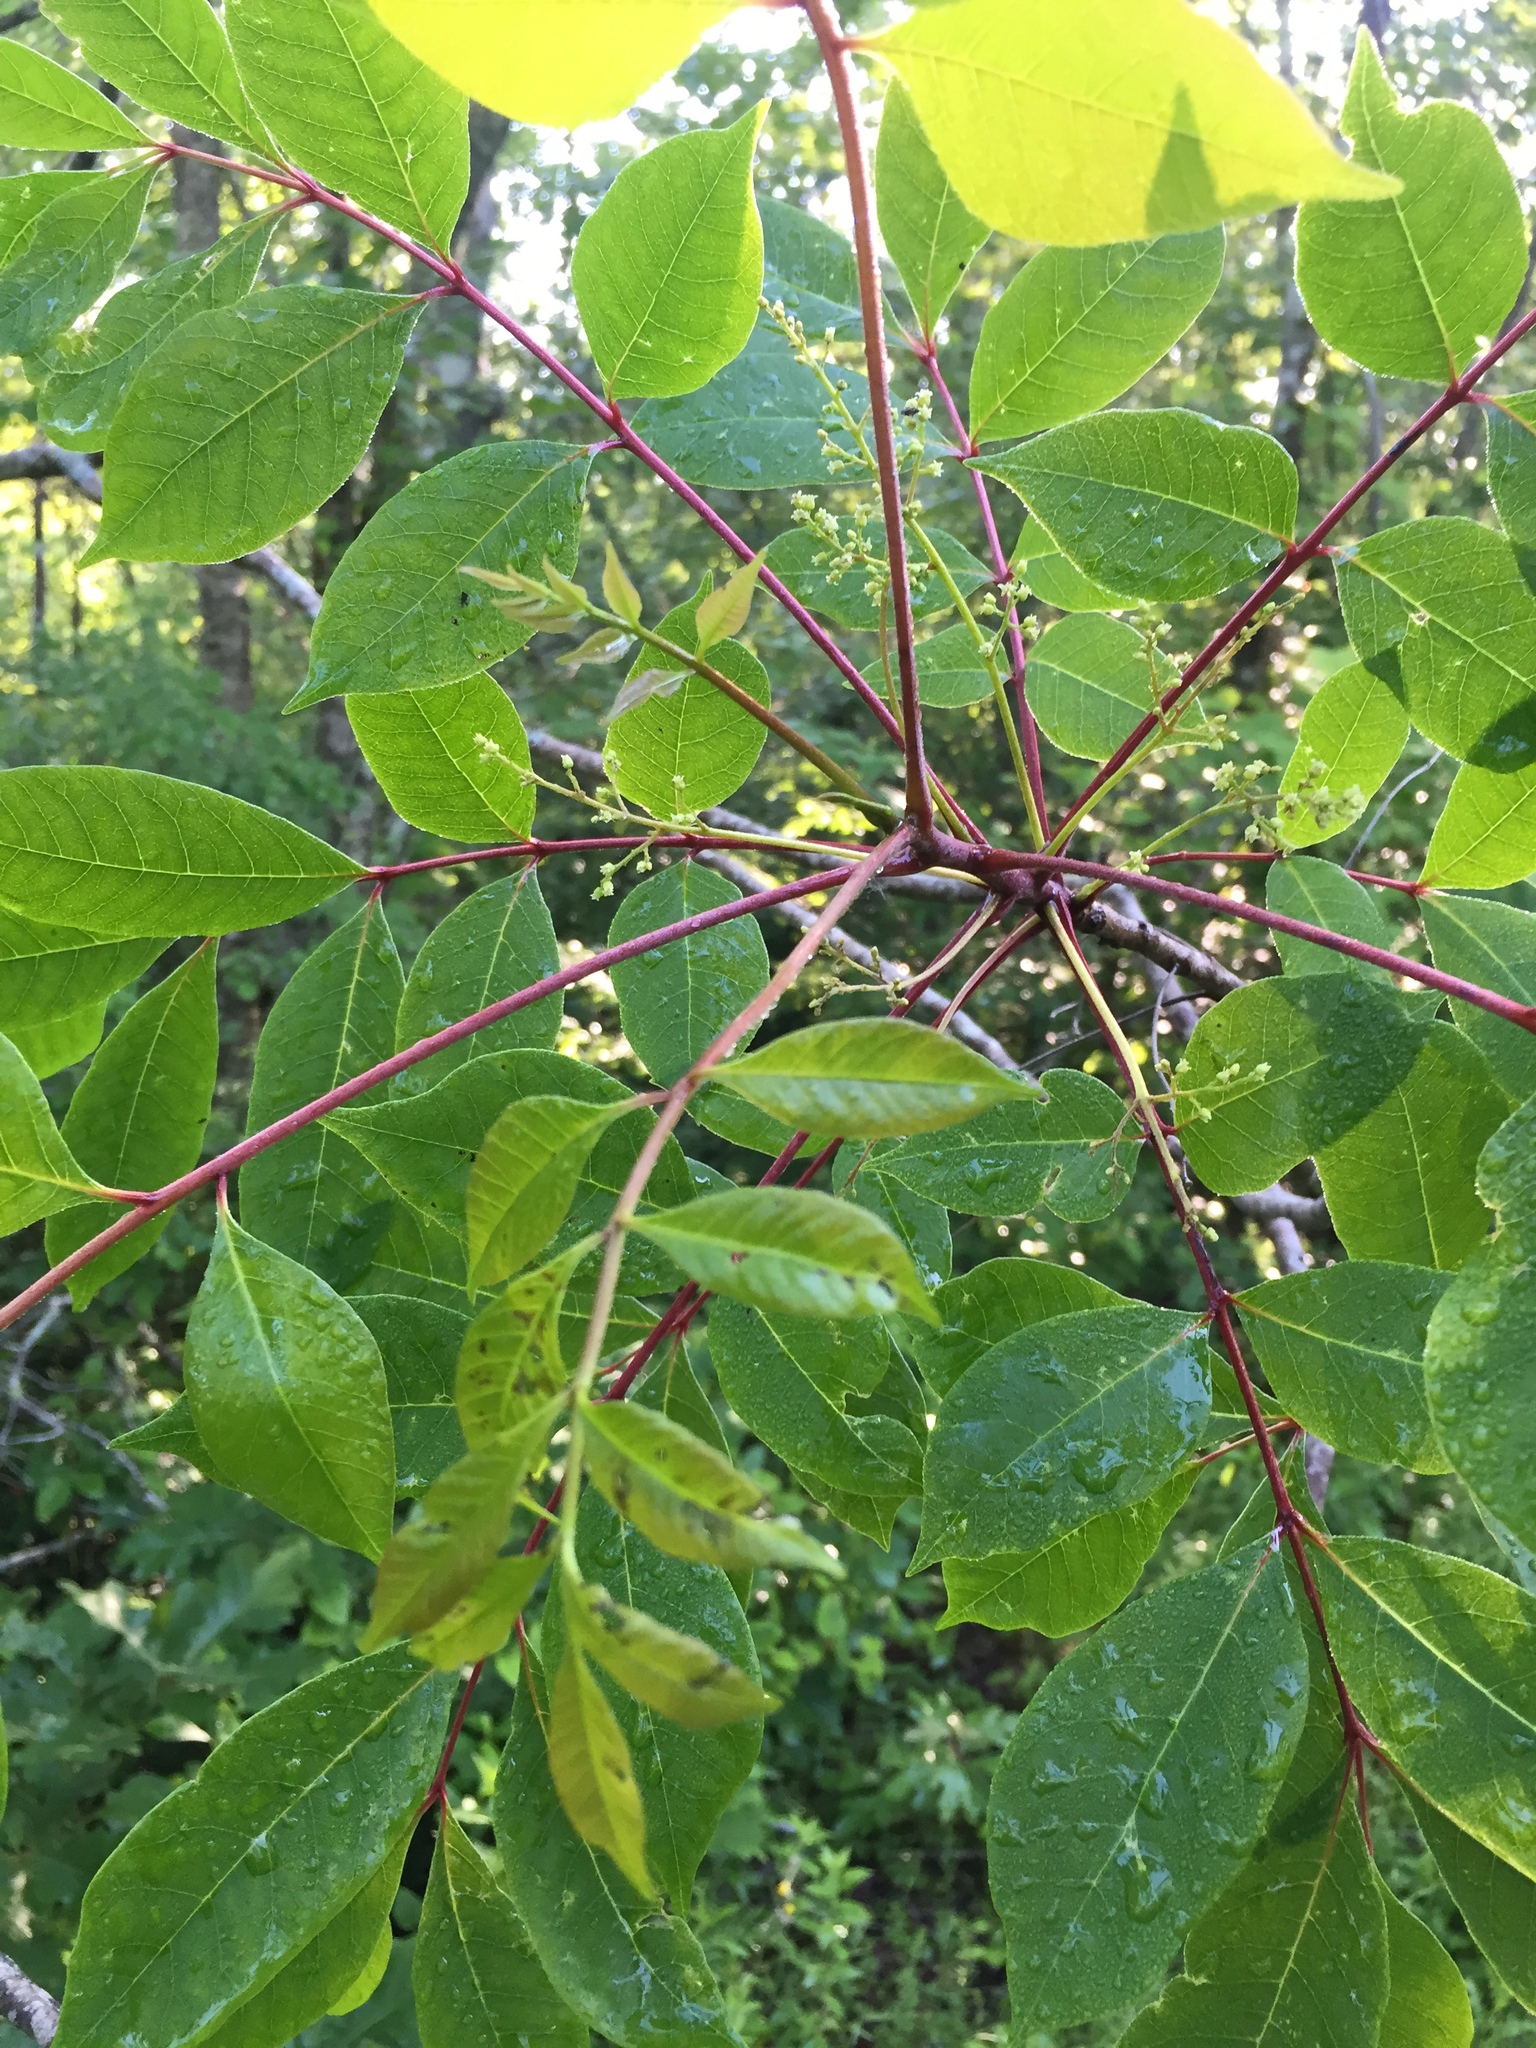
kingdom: Plantae
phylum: Tracheophyta
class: Magnoliopsida
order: Sapindales
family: Anacardiaceae
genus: Toxicodendron
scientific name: Toxicodendron vernix
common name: Poison sumac
